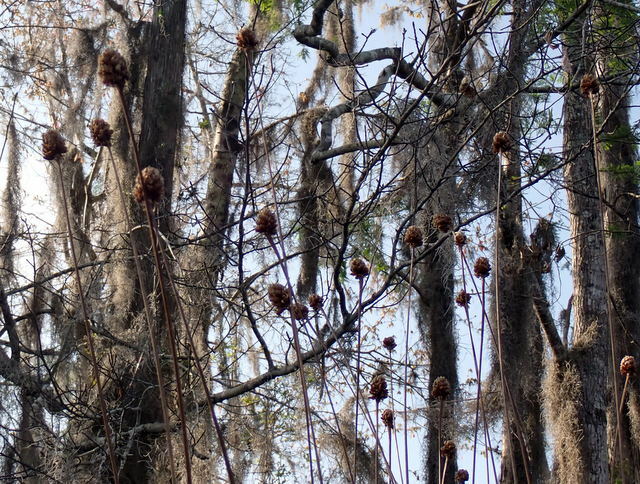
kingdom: Plantae
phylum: Tracheophyta
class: Liliopsida
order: Poales
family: Xyridaceae
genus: Xyris
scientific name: Xyris fimbriata
